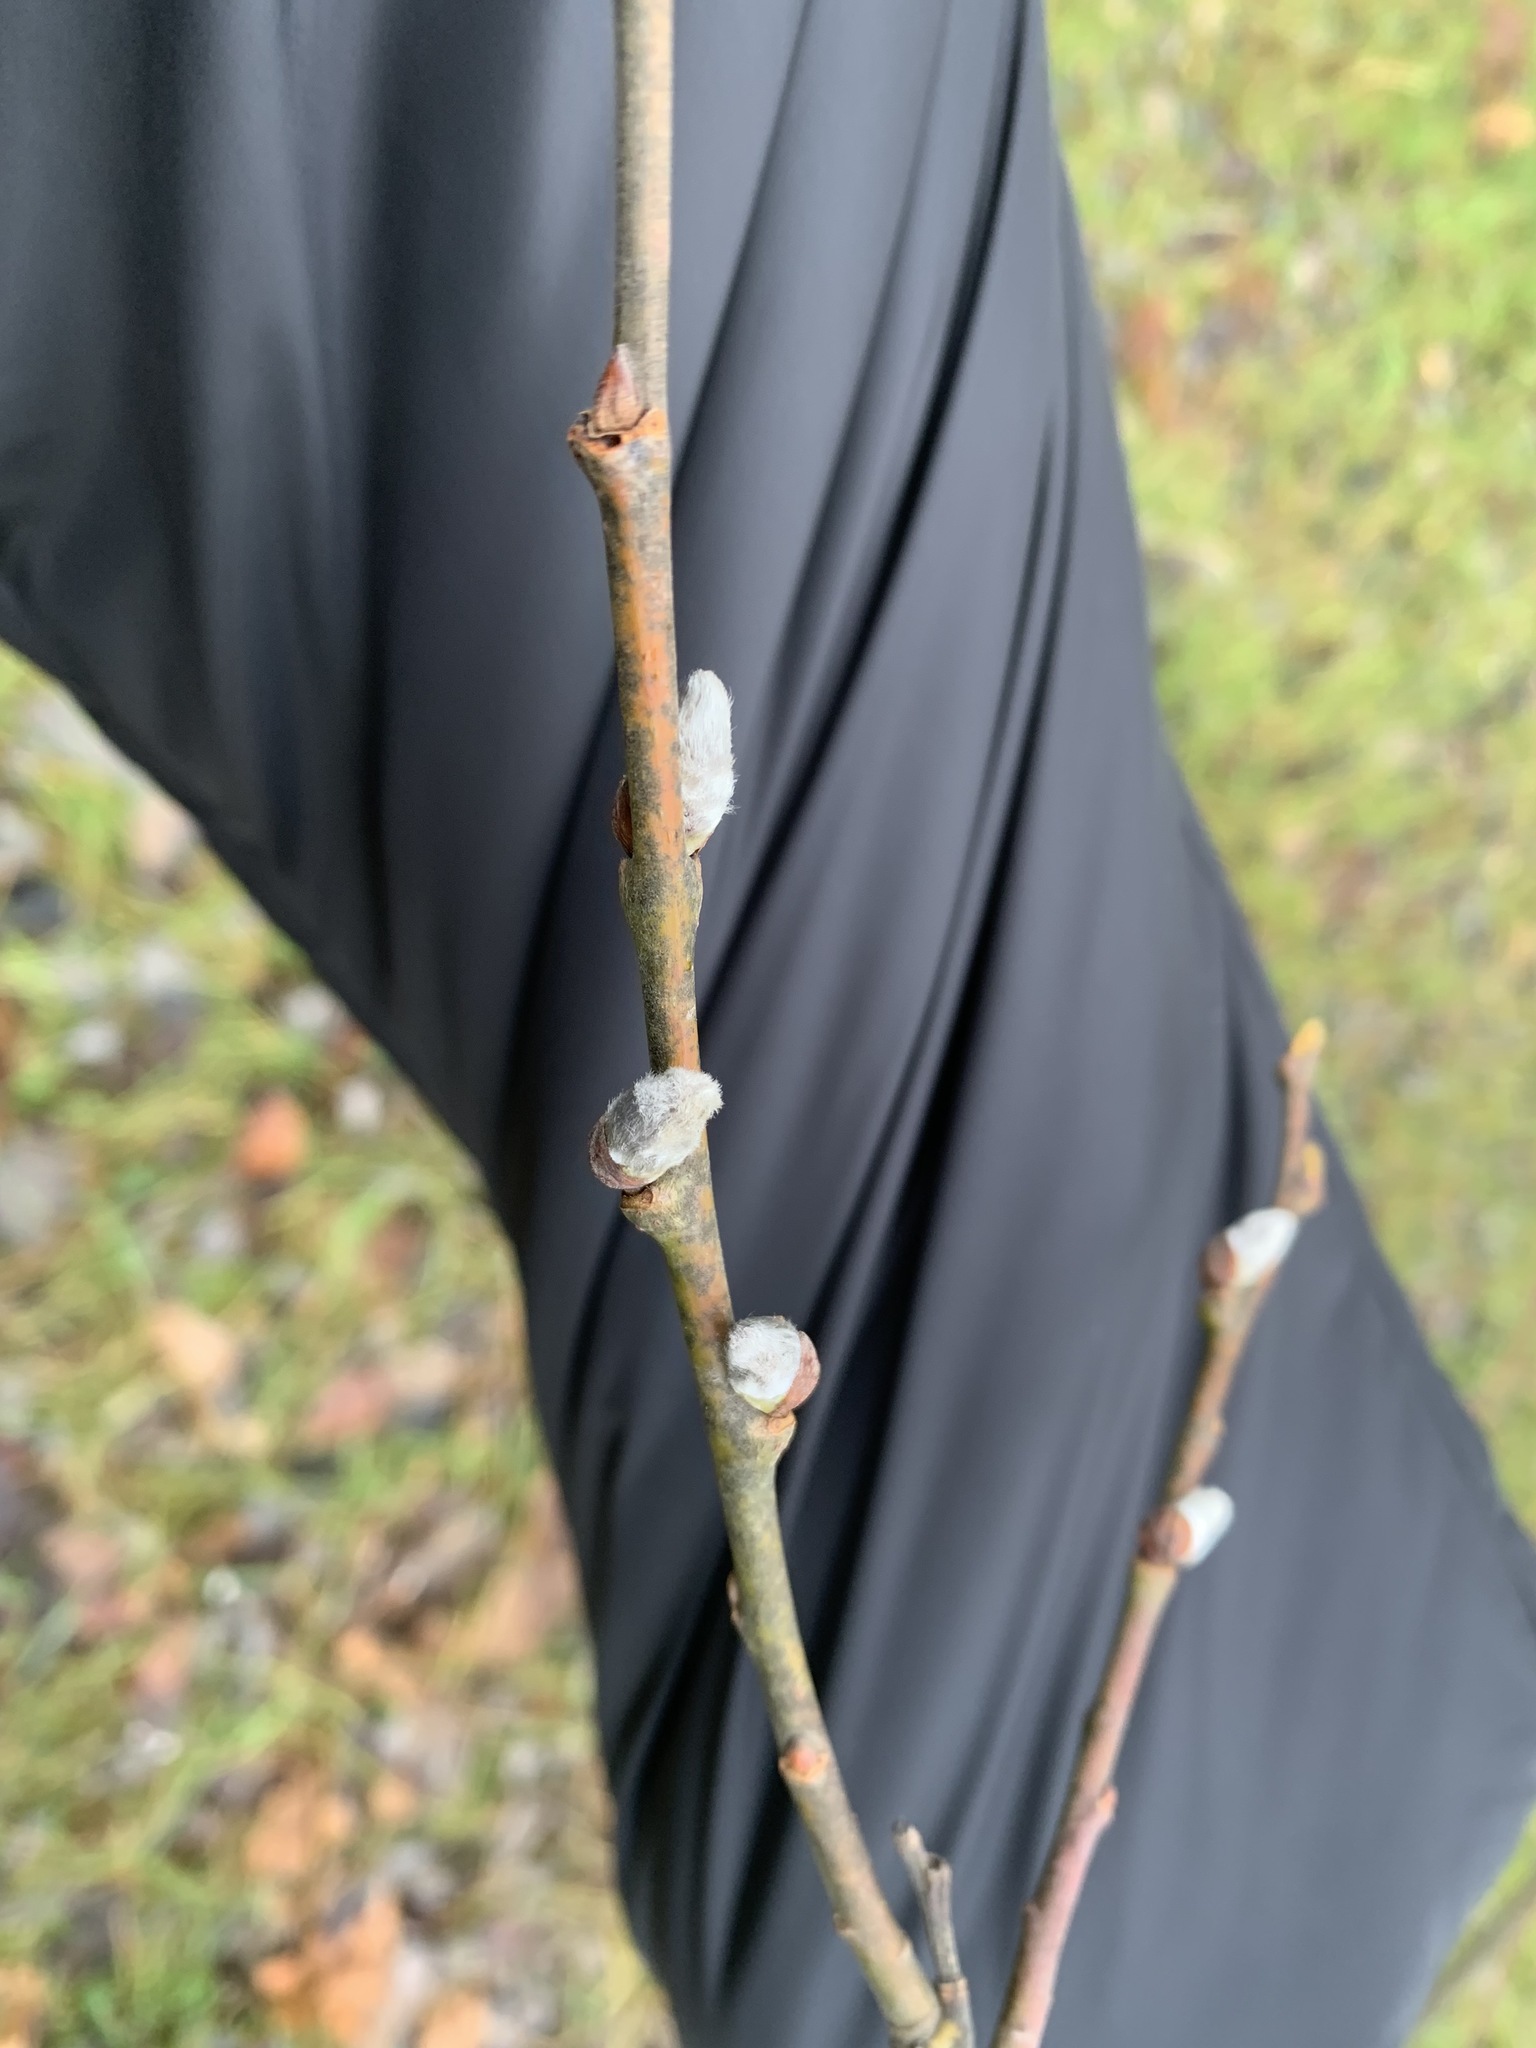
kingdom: Plantae
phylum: Tracheophyta
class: Magnoliopsida
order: Malpighiales
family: Salicaceae
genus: Salix
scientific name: Salix caprea
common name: Goat willow
